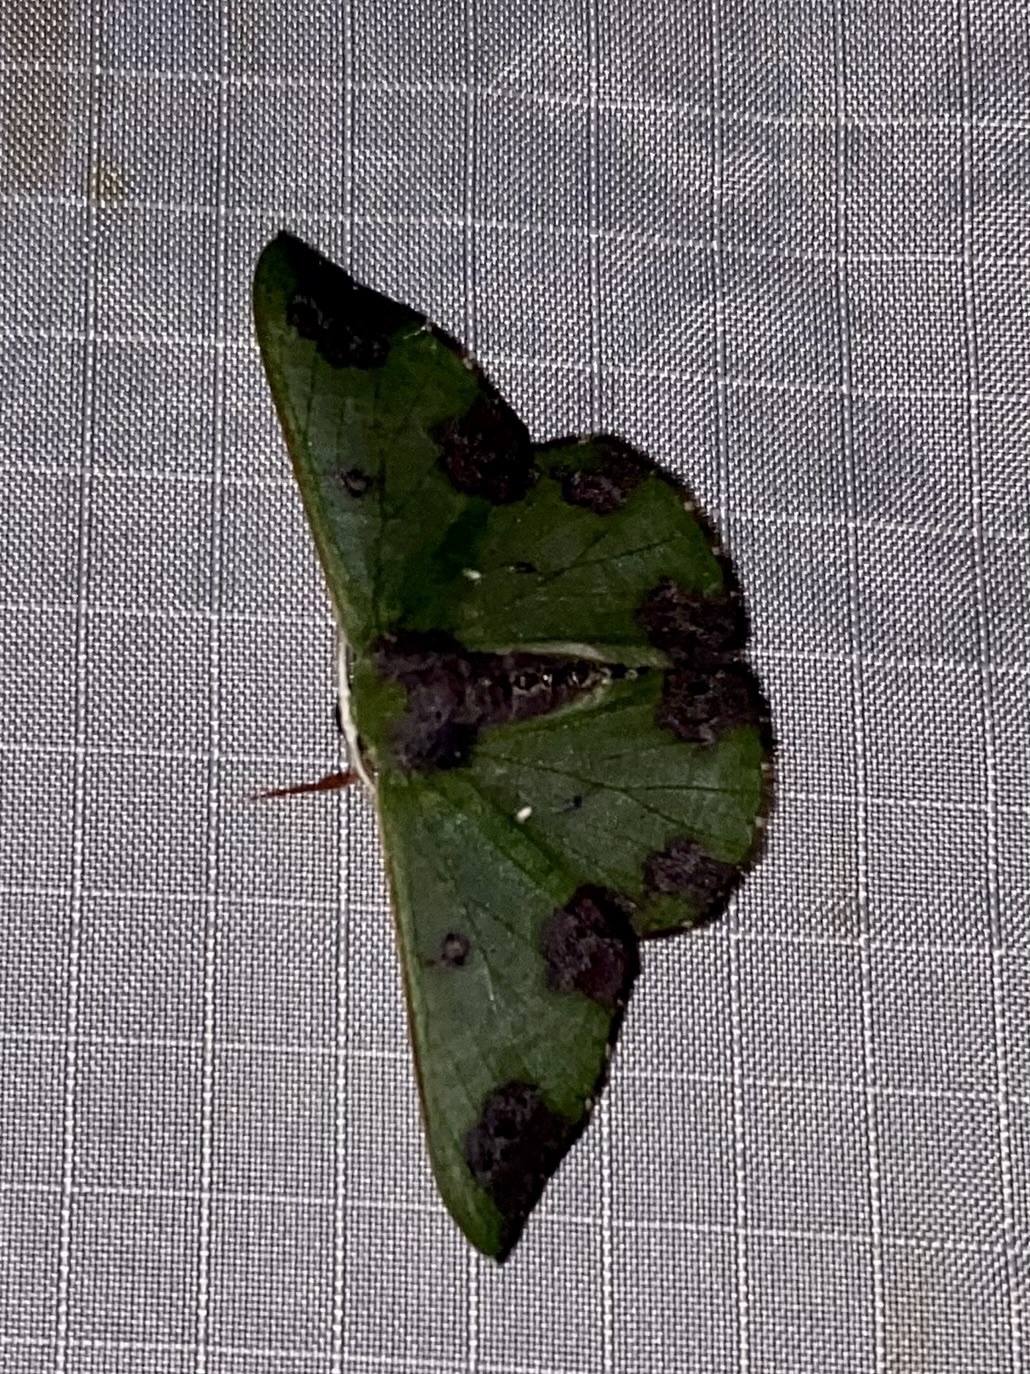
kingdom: Animalia
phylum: Arthropoda
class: Insecta
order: Lepidoptera
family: Geometridae
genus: Oospila
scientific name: Oospila atopochlora
